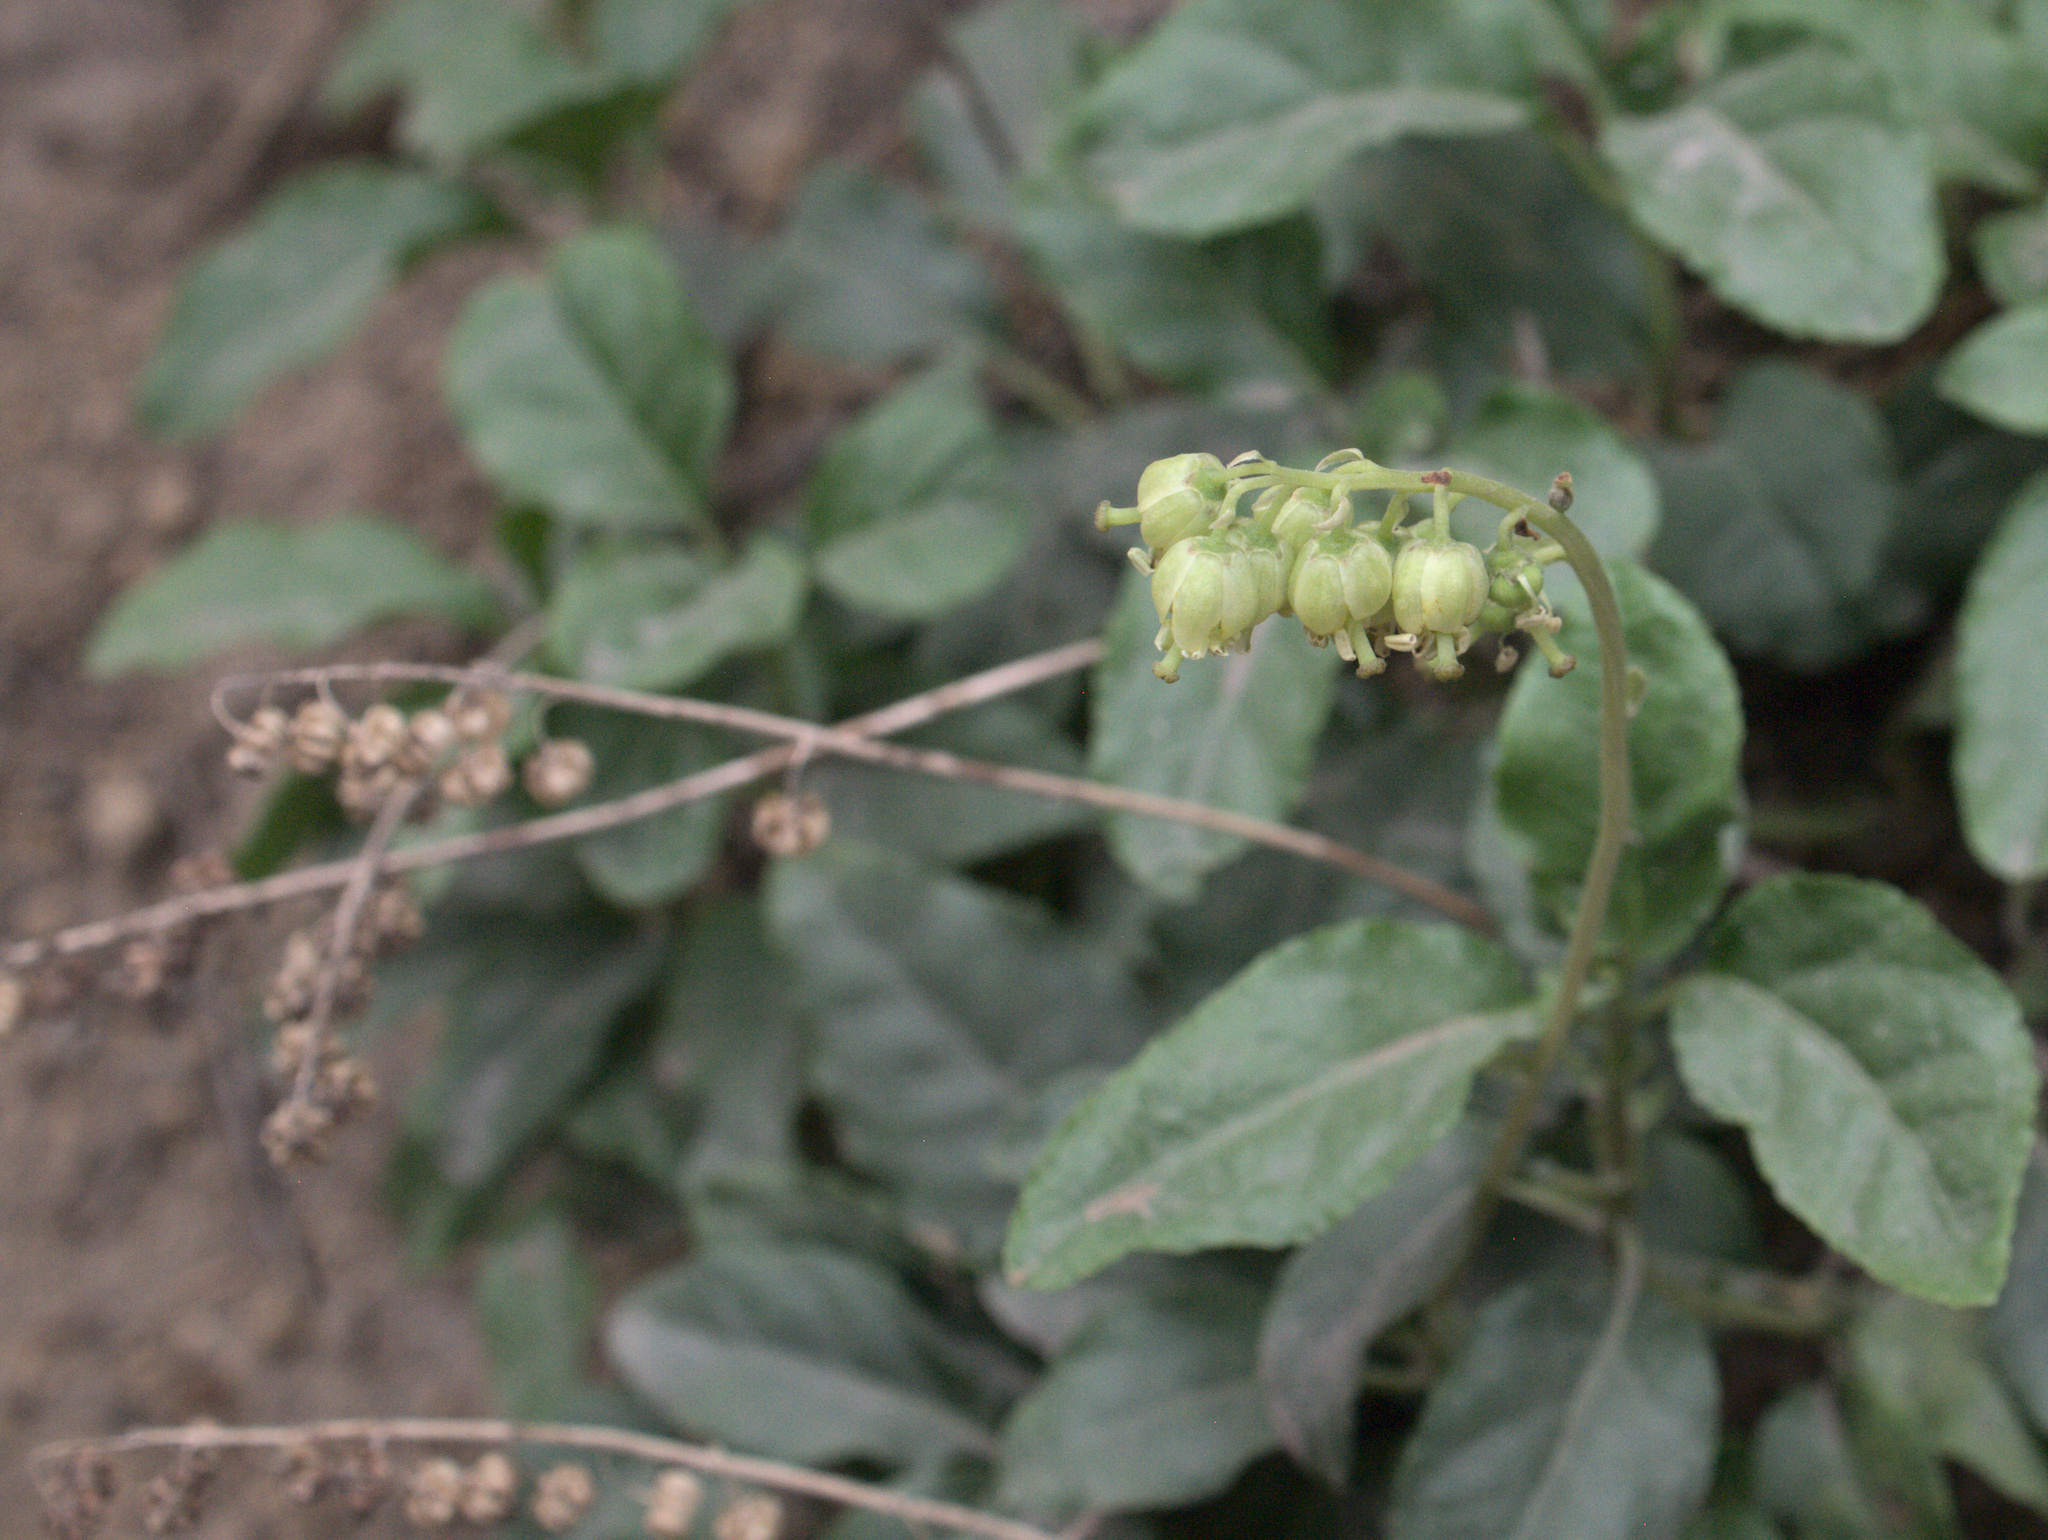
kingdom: Plantae
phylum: Tracheophyta
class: Magnoliopsida
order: Ericales
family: Ericaceae
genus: Orthilia
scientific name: Orthilia secunda
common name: One-sided orthilia
